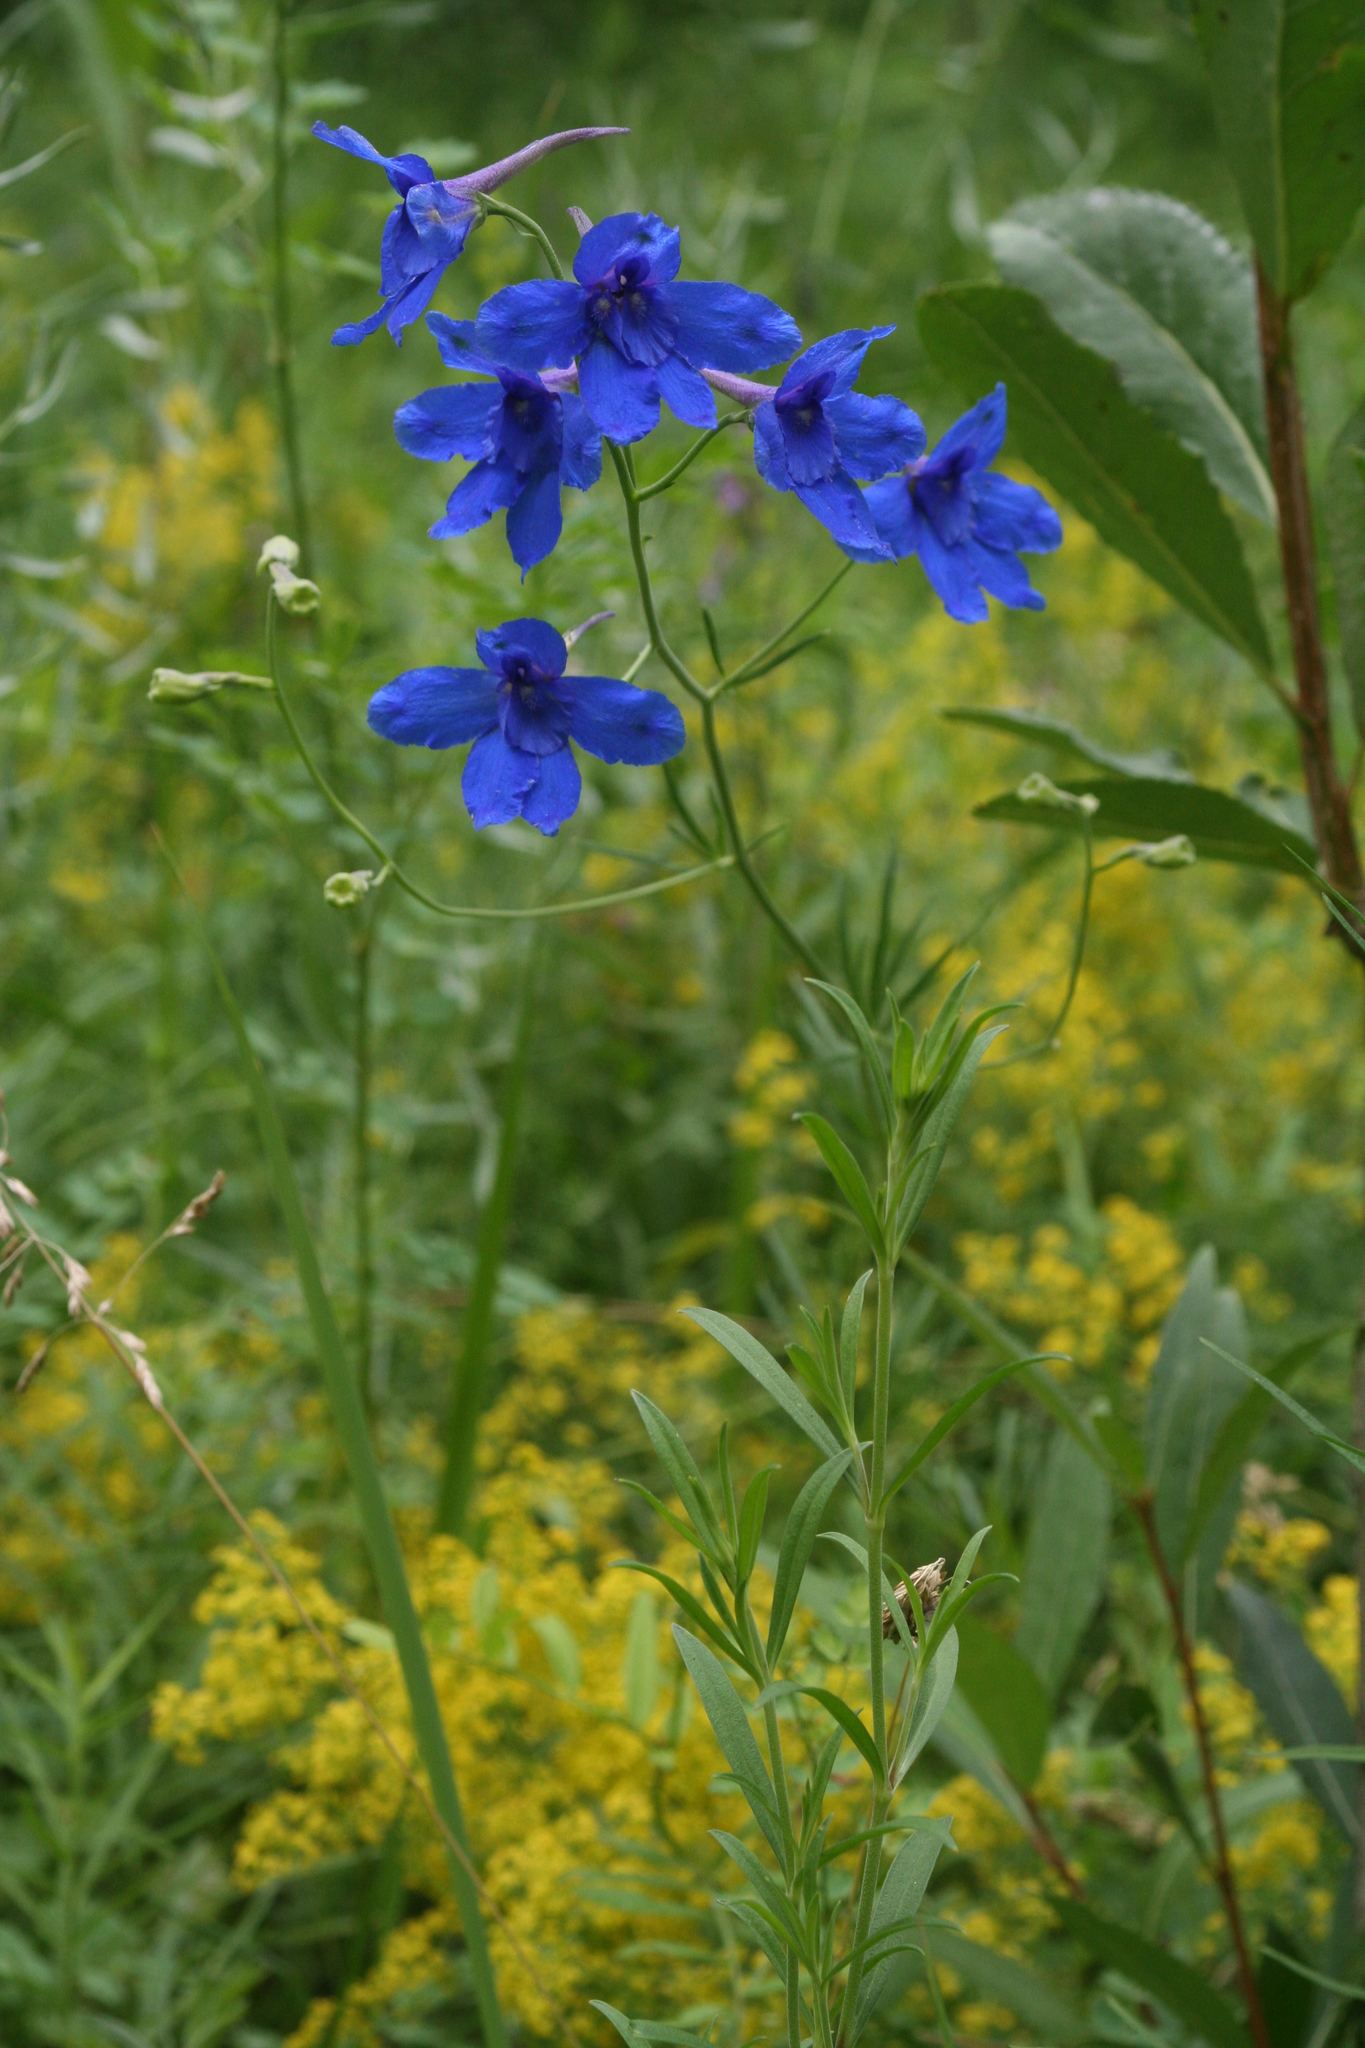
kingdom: Plantae
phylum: Tracheophyta
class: Magnoliopsida
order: Ranunculales
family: Ranunculaceae
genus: Delphinium
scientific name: Delphinium grandiflorum
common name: Siberian larkspur
